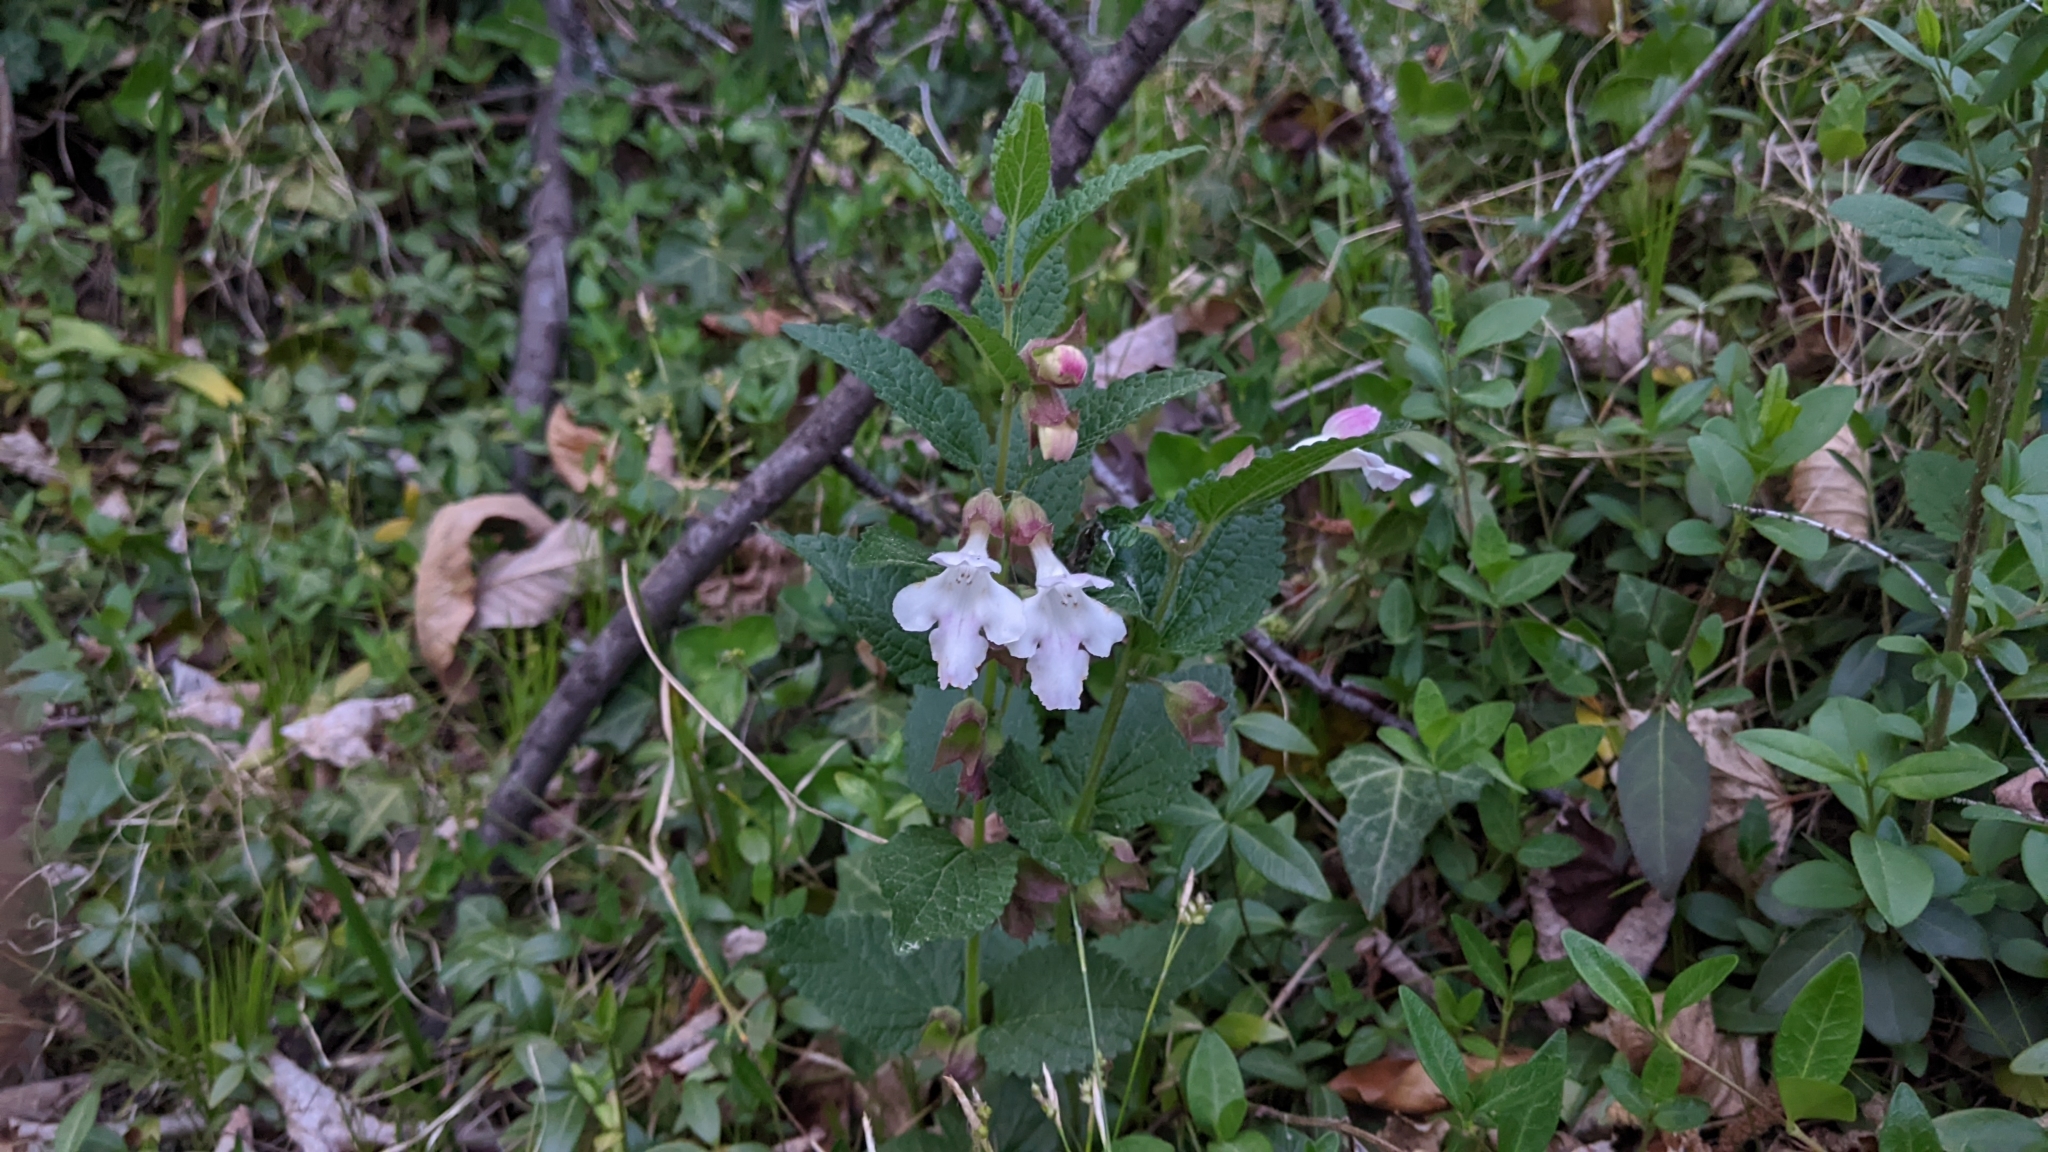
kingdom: Plantae
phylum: Tracheophyta
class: Magnoliopsida
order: Lamiales
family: Lamiaceae
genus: Melittis
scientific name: Melittis melissophyllum
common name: Bastard balm
